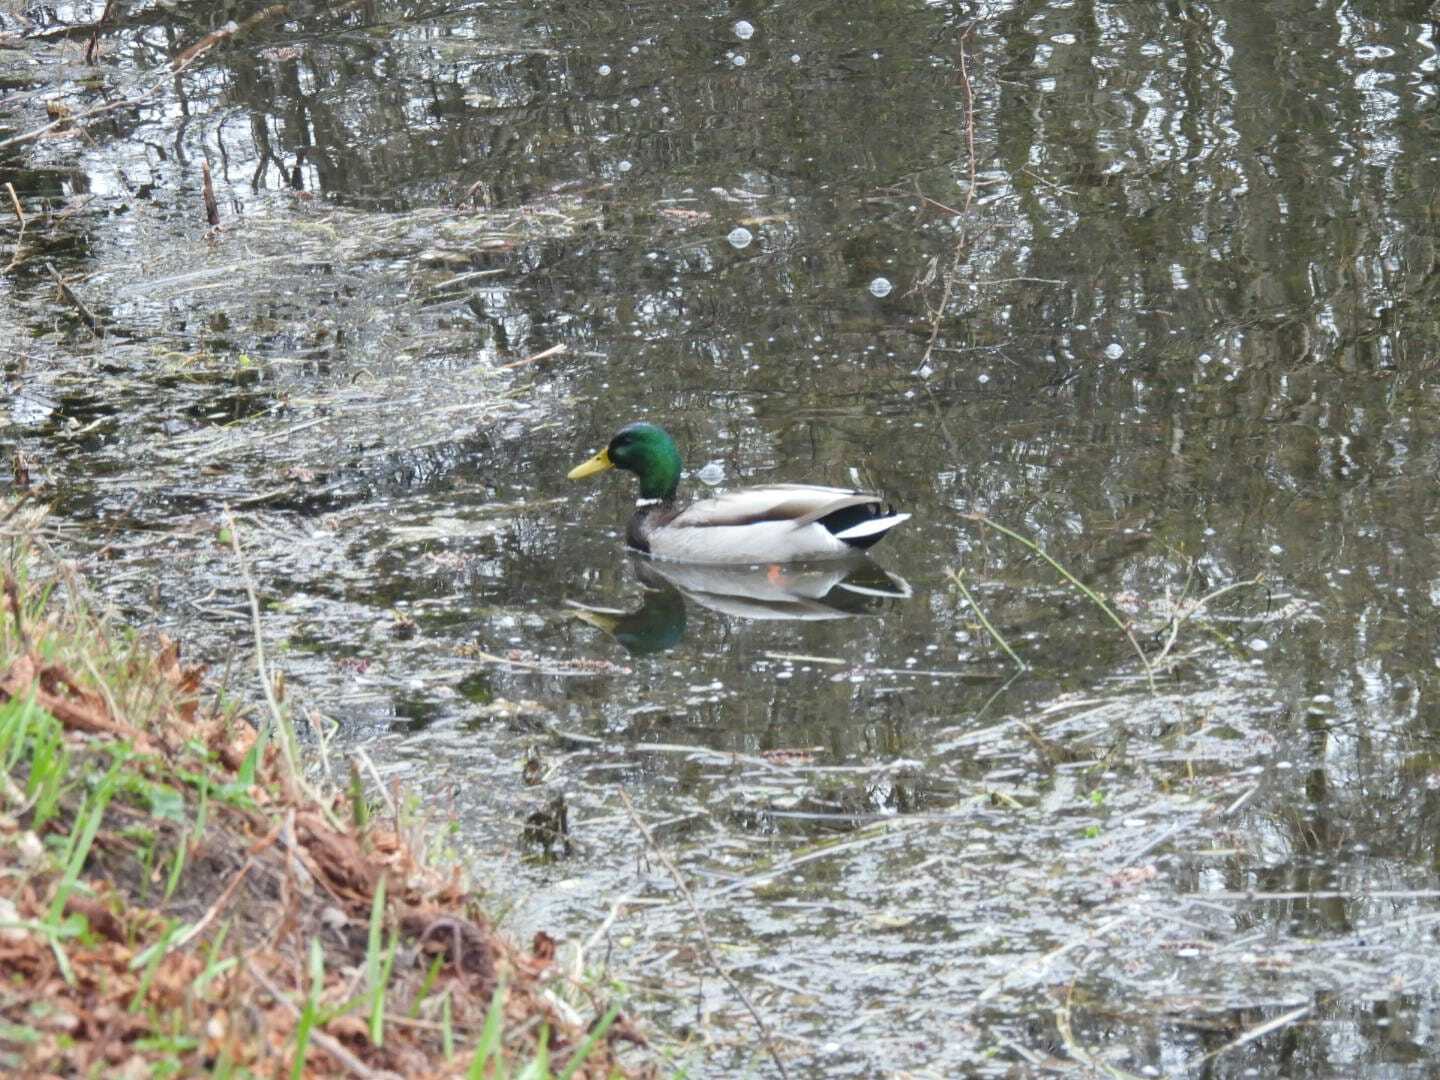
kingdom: Animalia
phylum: Chordata
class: Aves
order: Anseriformes
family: Anatidae
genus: Anas
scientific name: Anas platyrhynchos
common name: Mallard
